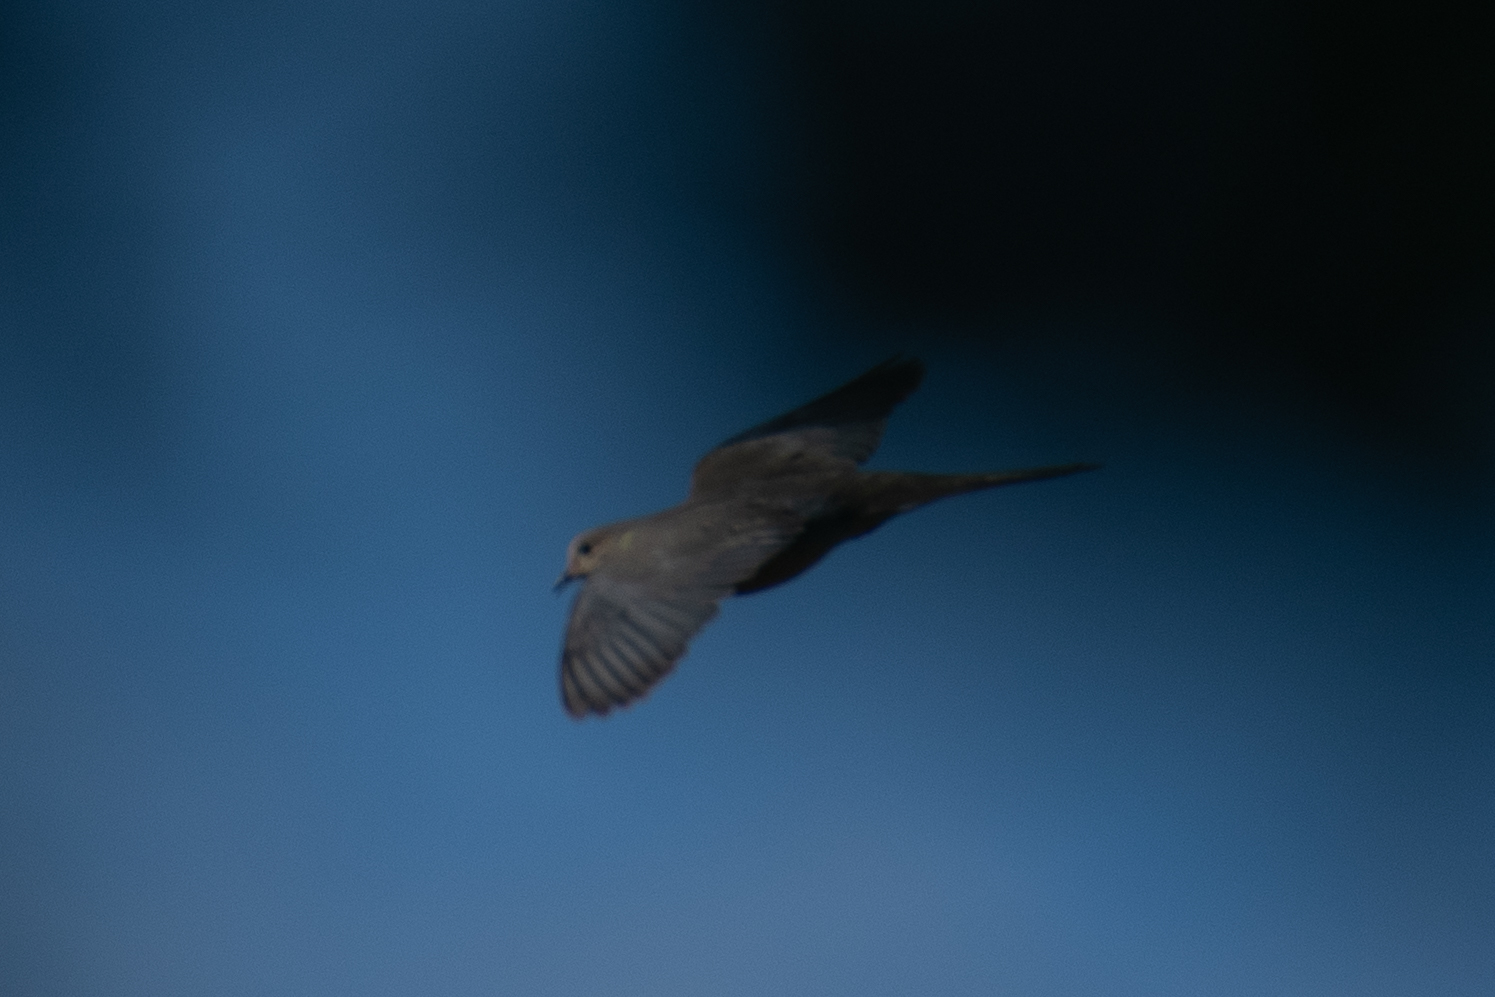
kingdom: Animalia
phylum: Chordata
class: Aves
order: Columbiformes
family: Columbidae
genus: Zenaida
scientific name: Zenaida macroura
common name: Mourning dove
